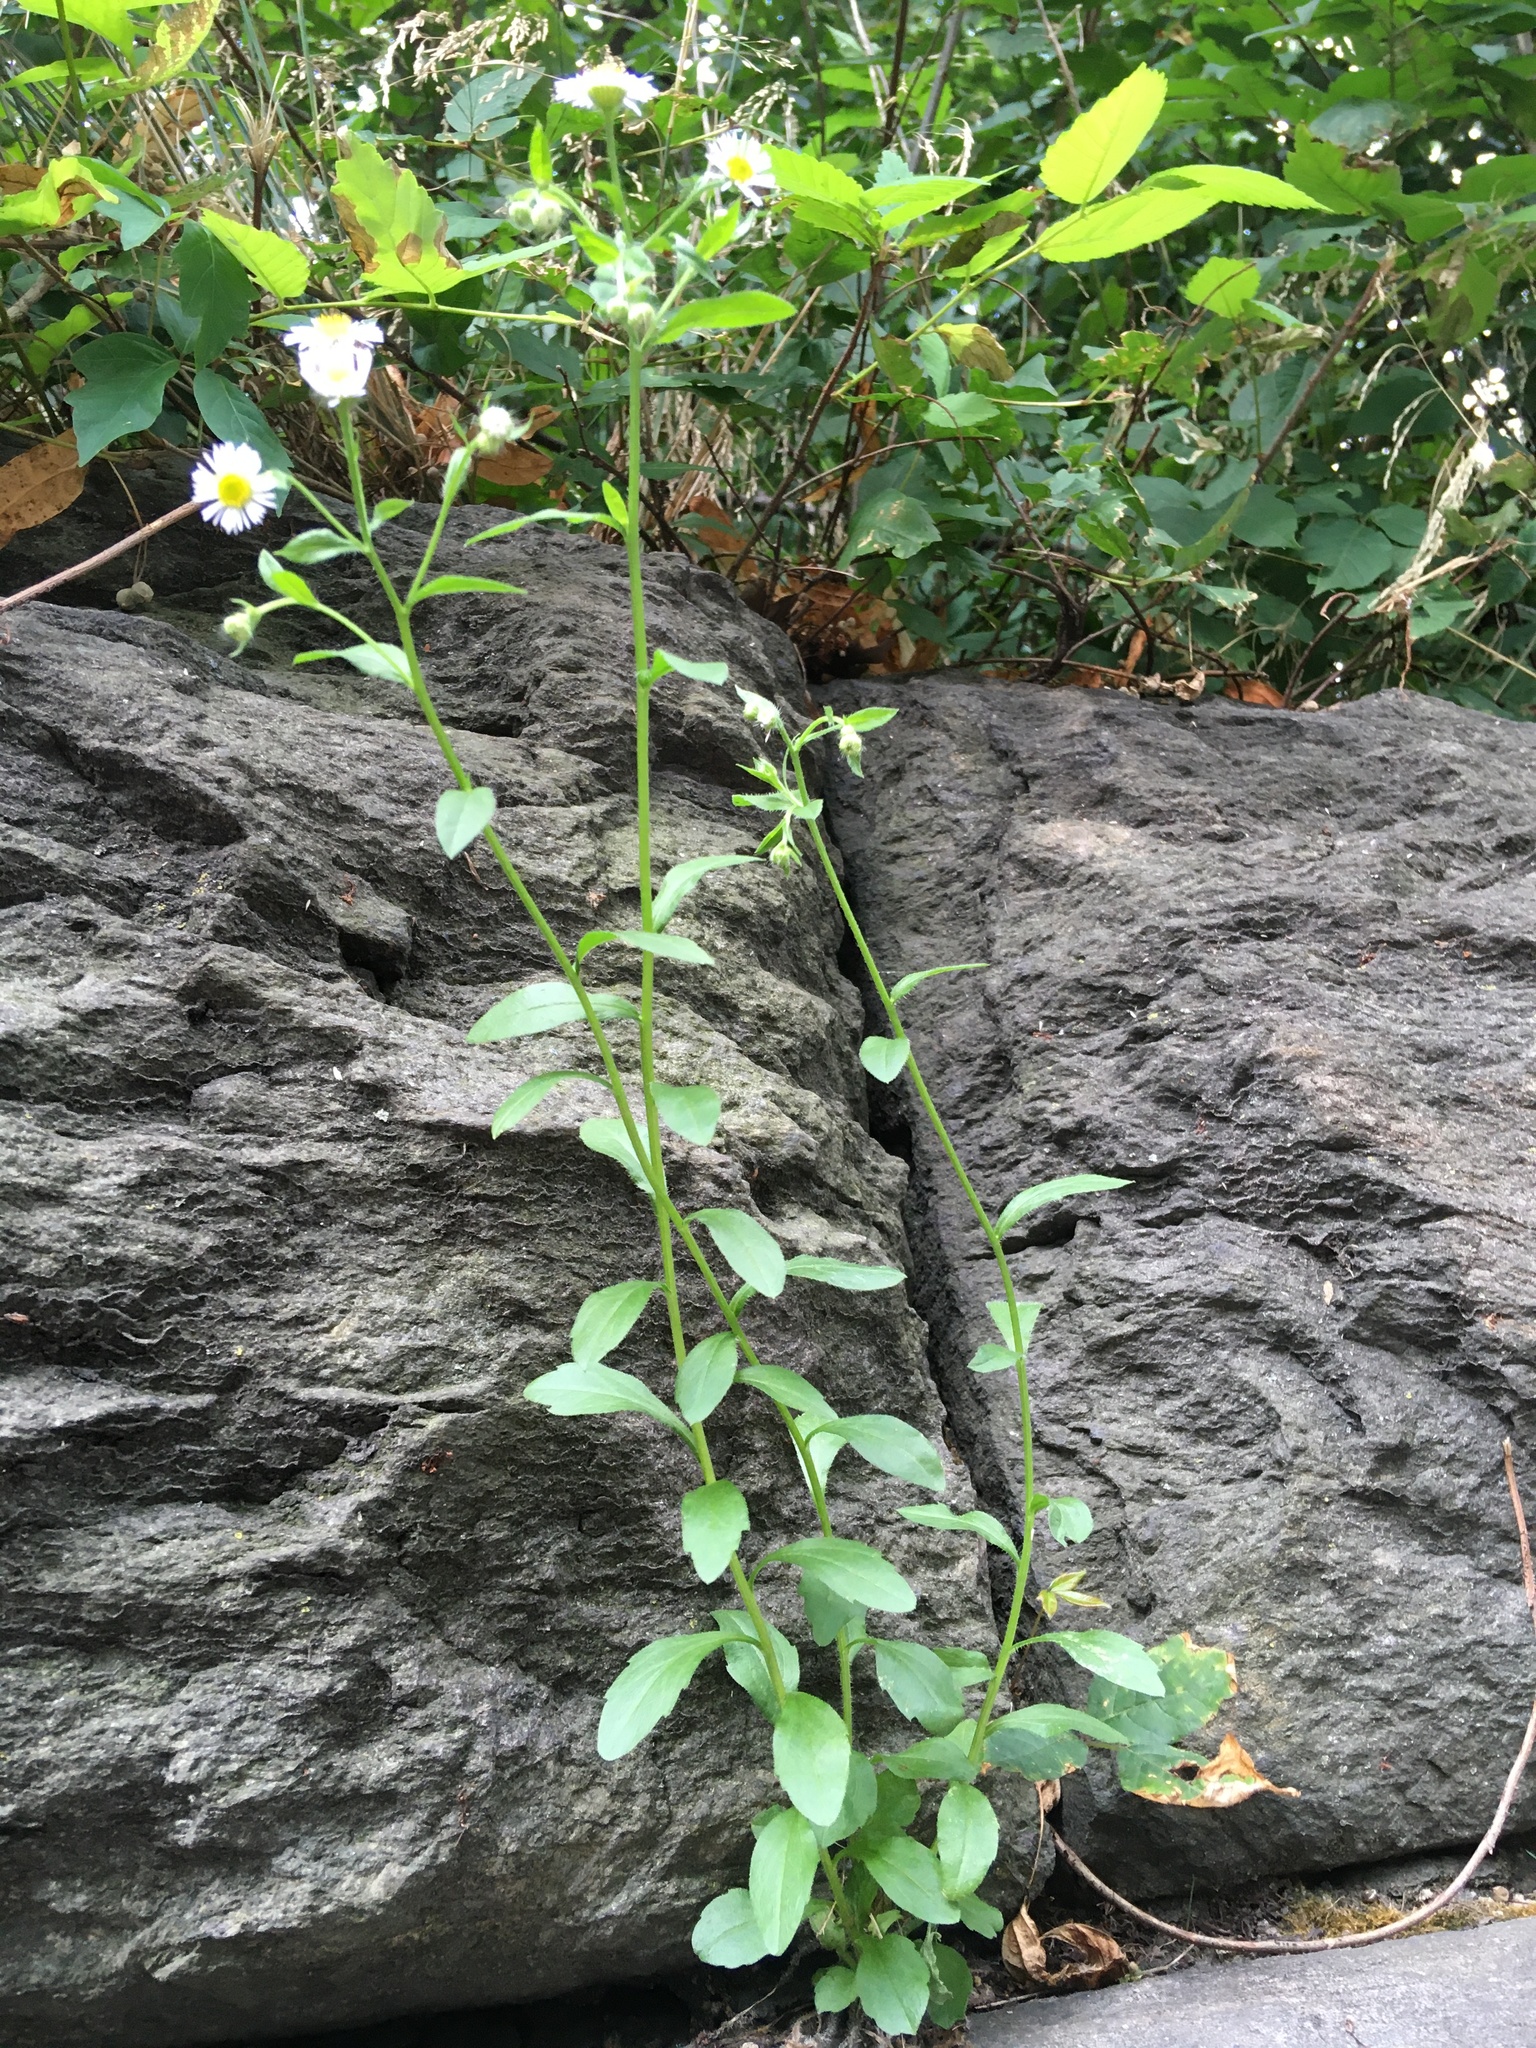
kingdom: Plantae
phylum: Tracheophyta
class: Magnoliopsida
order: Asterales
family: Asteraceae
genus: Erigeron
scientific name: Erigeron strigosus
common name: Common eastern fleabane
